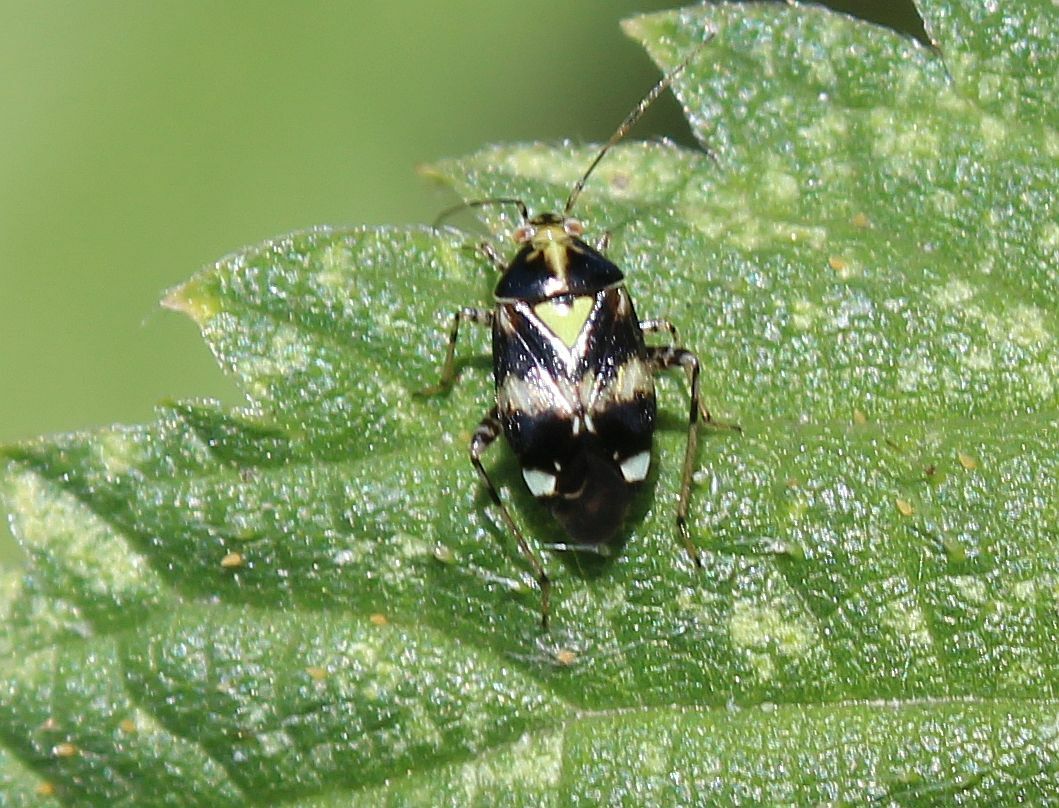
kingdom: Animalia
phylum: Arthropoda
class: Insecta
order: Hemiptera
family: Miridae
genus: Liocoris
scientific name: Liocoris tripustulatus
